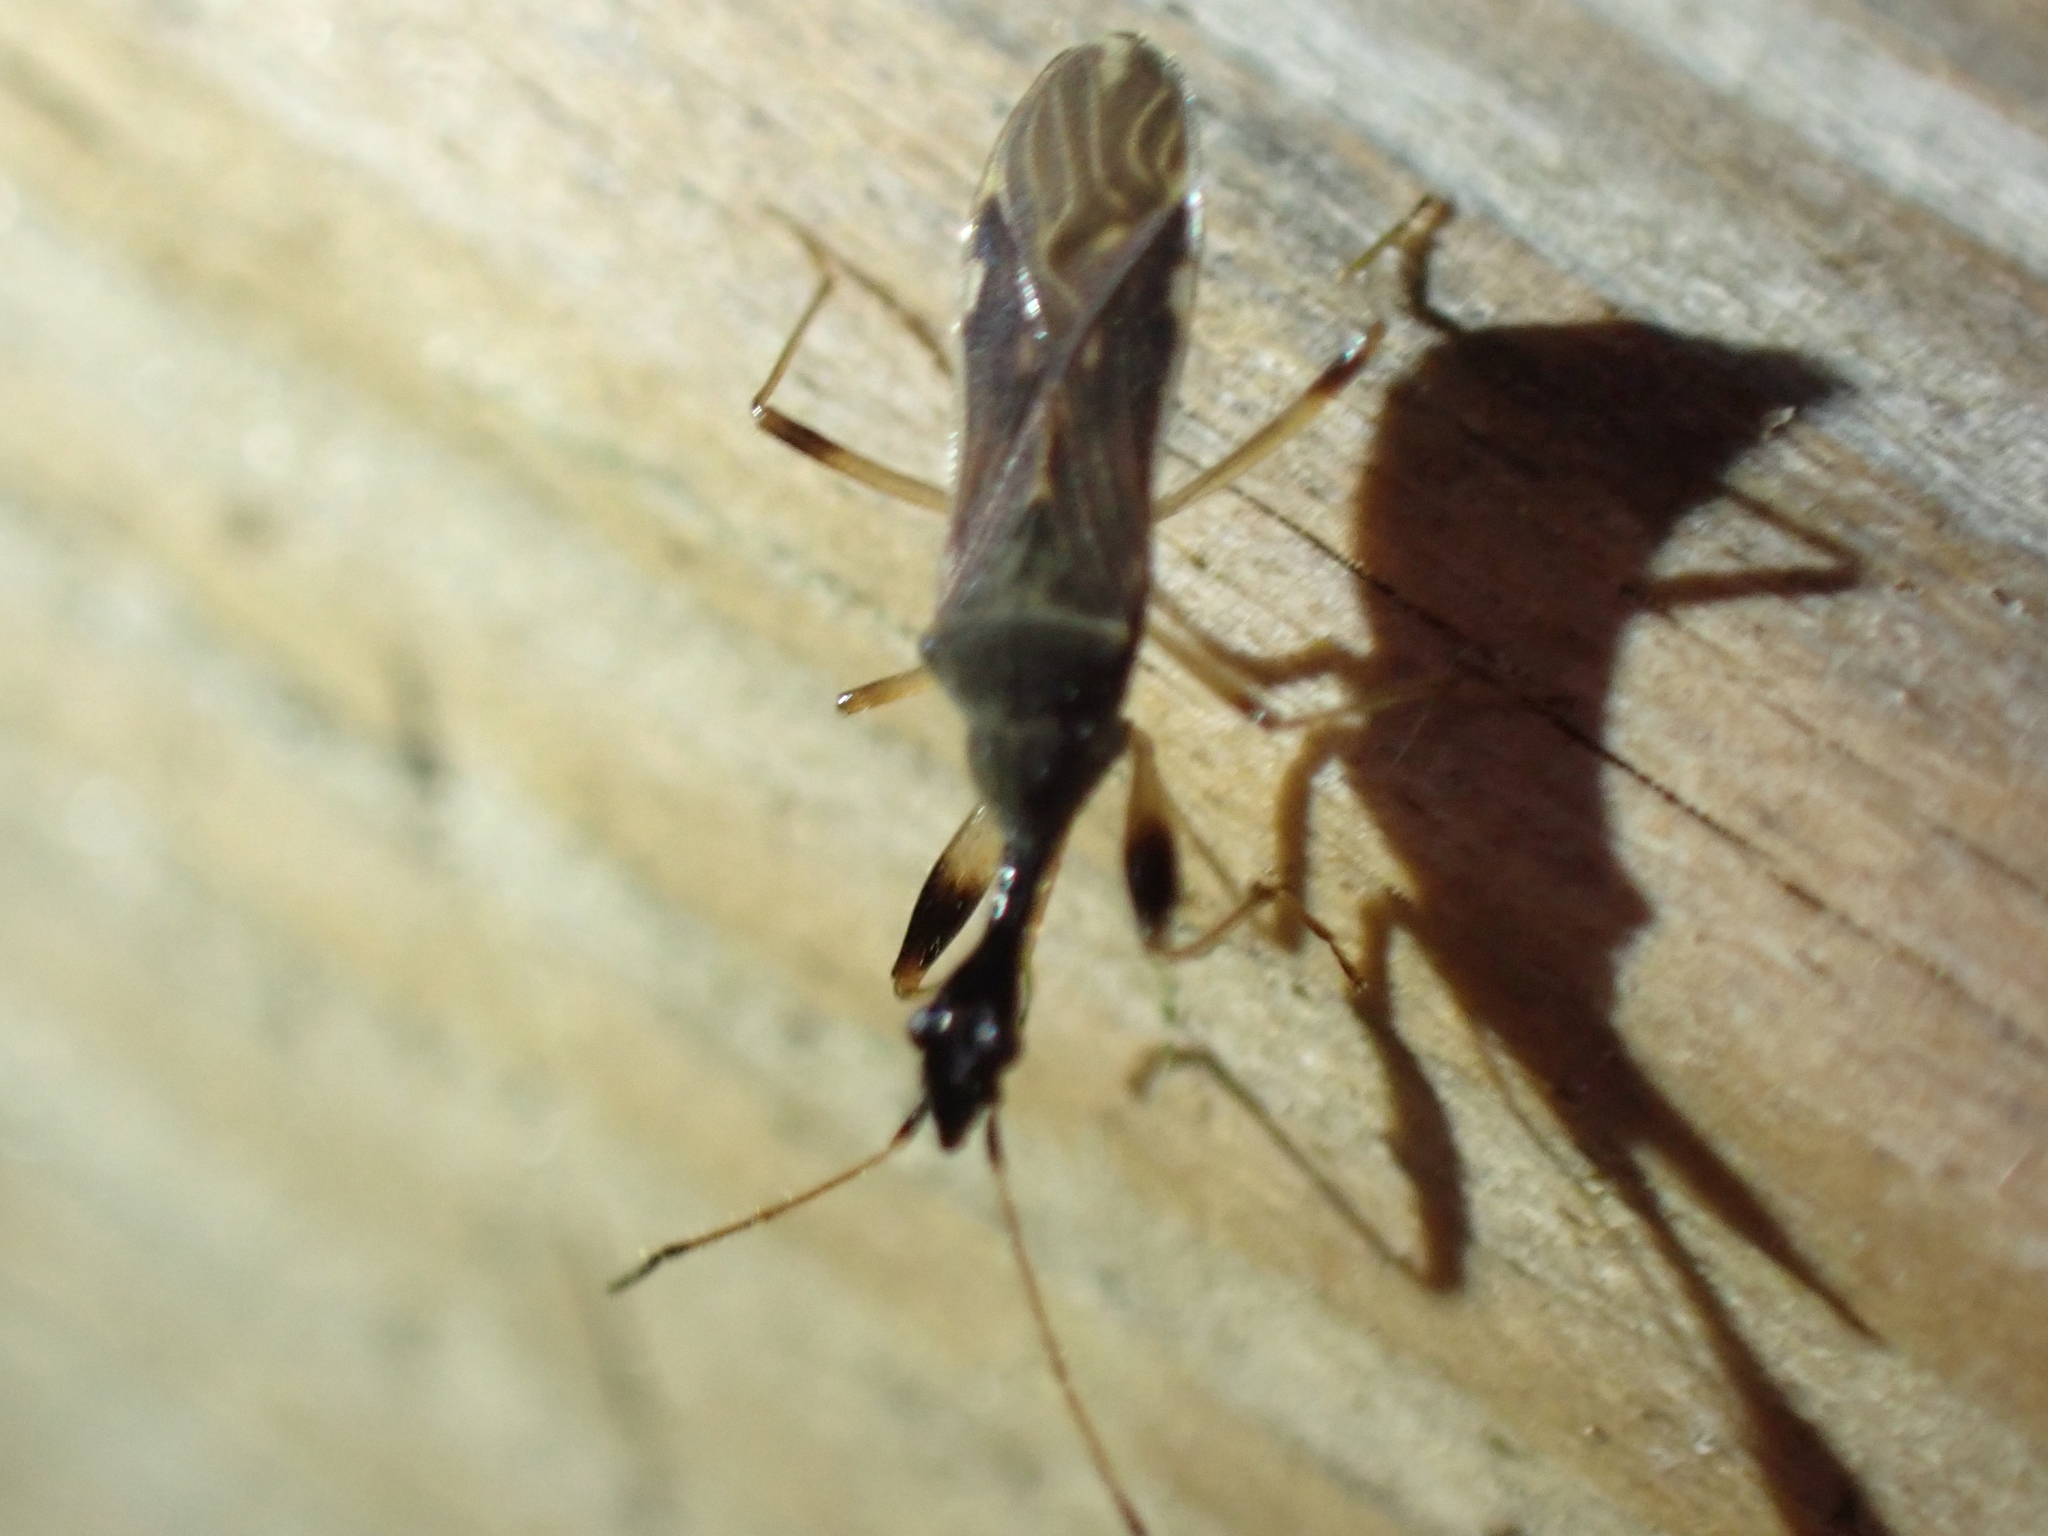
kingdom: Animalia
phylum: Arthropoda
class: Insecta
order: Hemiptera
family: Rhyparochromidae
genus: Myodocha
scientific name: Myodocha serripes
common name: Long-necked seed bug
